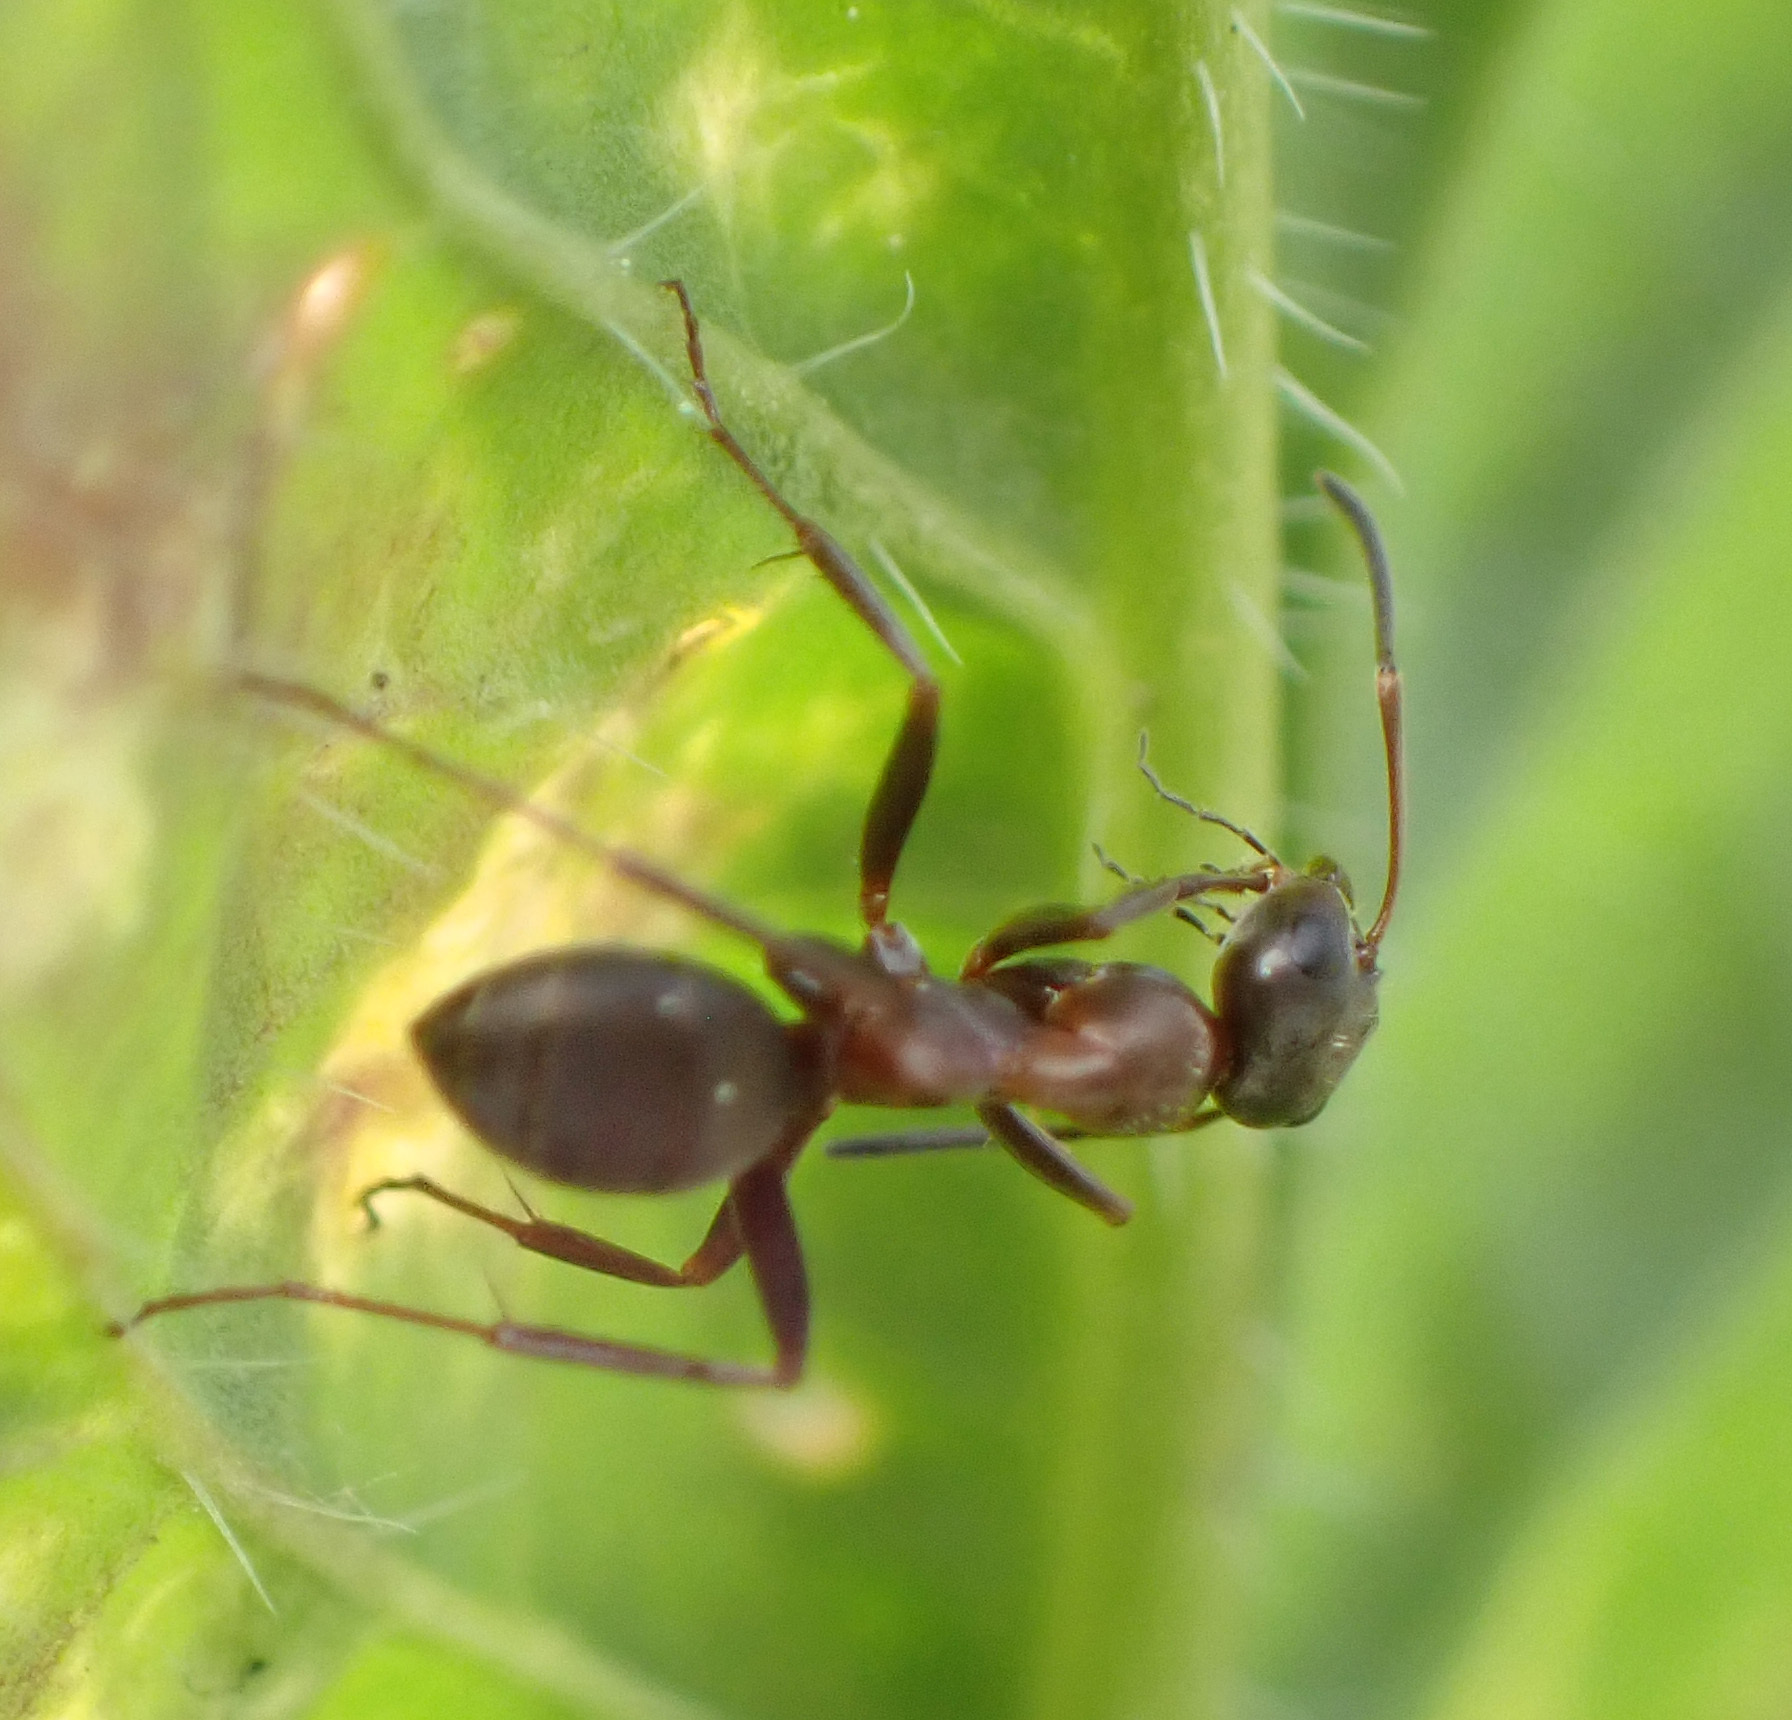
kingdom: Animalia
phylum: Arthropoda
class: Insecta
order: Hymenoptera
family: Formicidae
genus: Formica
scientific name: Formica cunicularia
